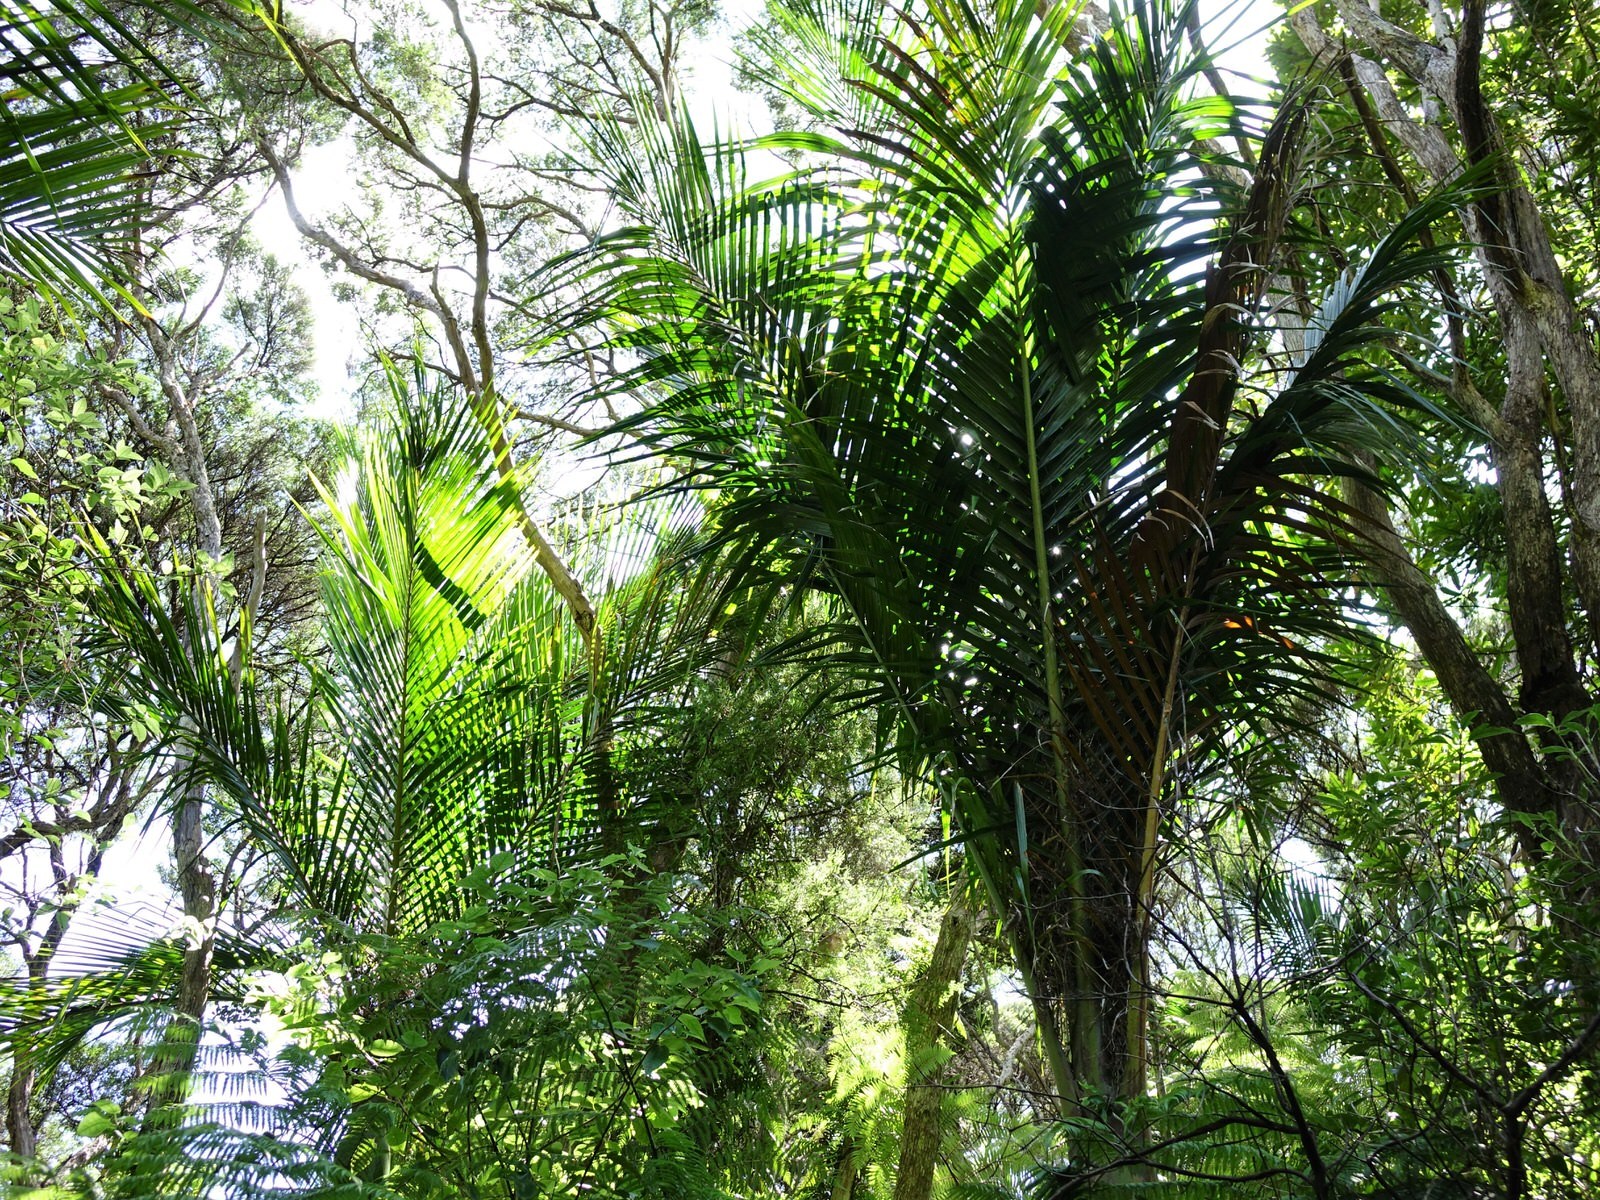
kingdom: Plantae
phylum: Tracheophyta
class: Liliopsida
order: Arecales
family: Arecaceae
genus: Rhopalostylis
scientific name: Rhopalostylis sapida
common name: Feather-duster palm
